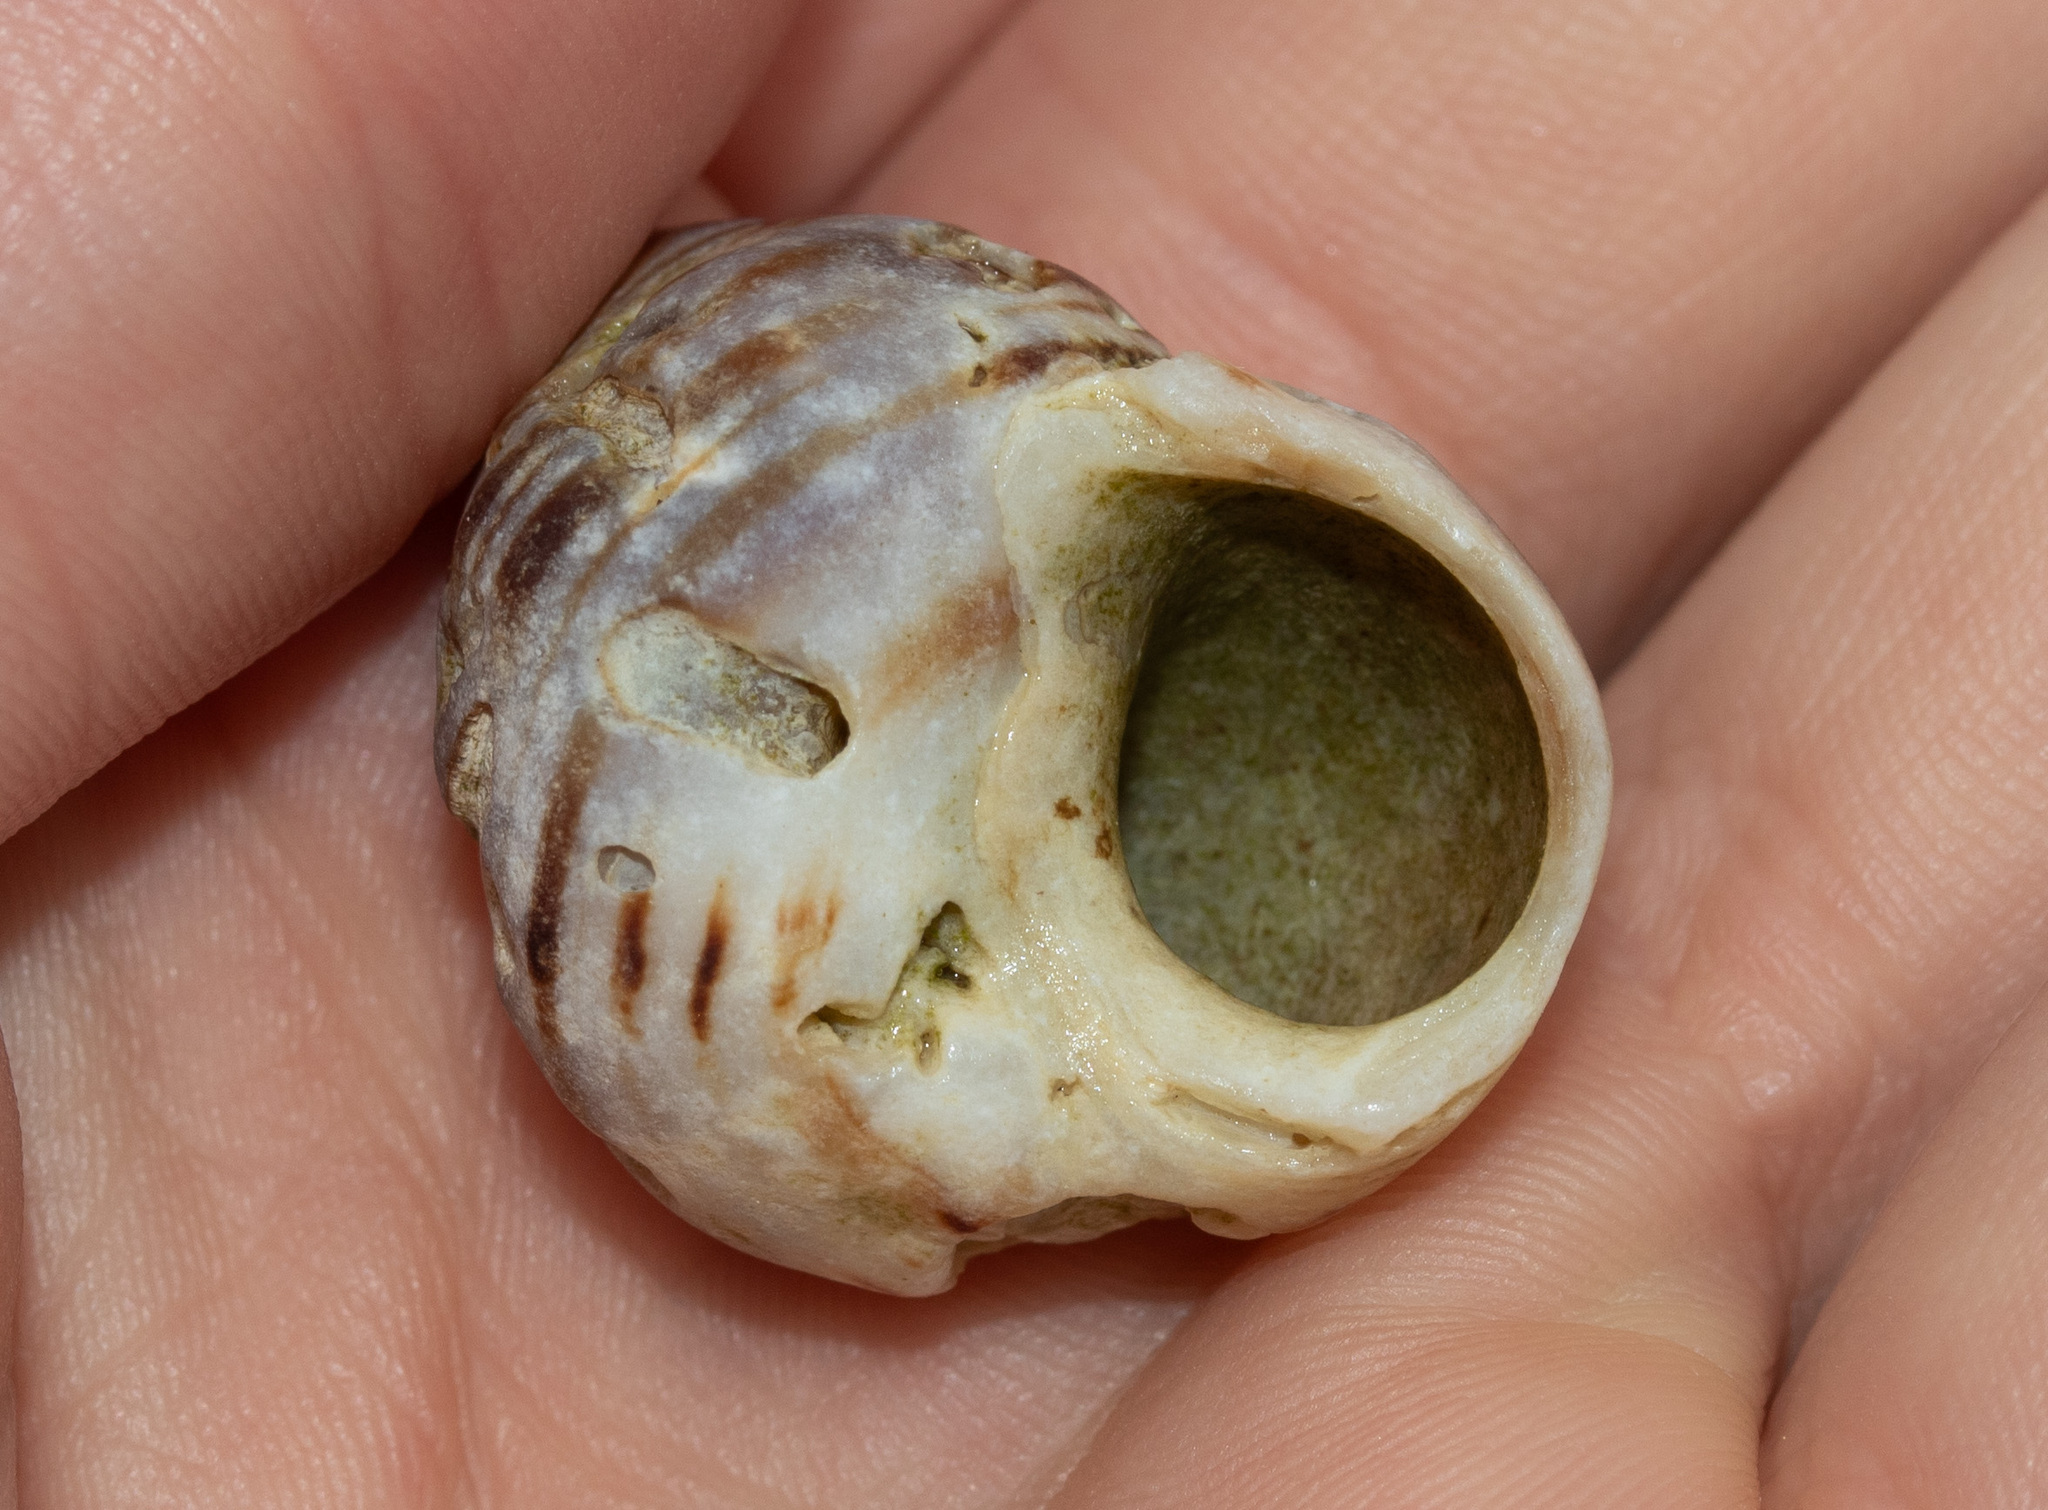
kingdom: Animalia
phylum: Mollusca
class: Gastropoda
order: Littorinimorpha
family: Littorinidae
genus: Littorina
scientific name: Littorina littorea
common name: Common periwinkle
